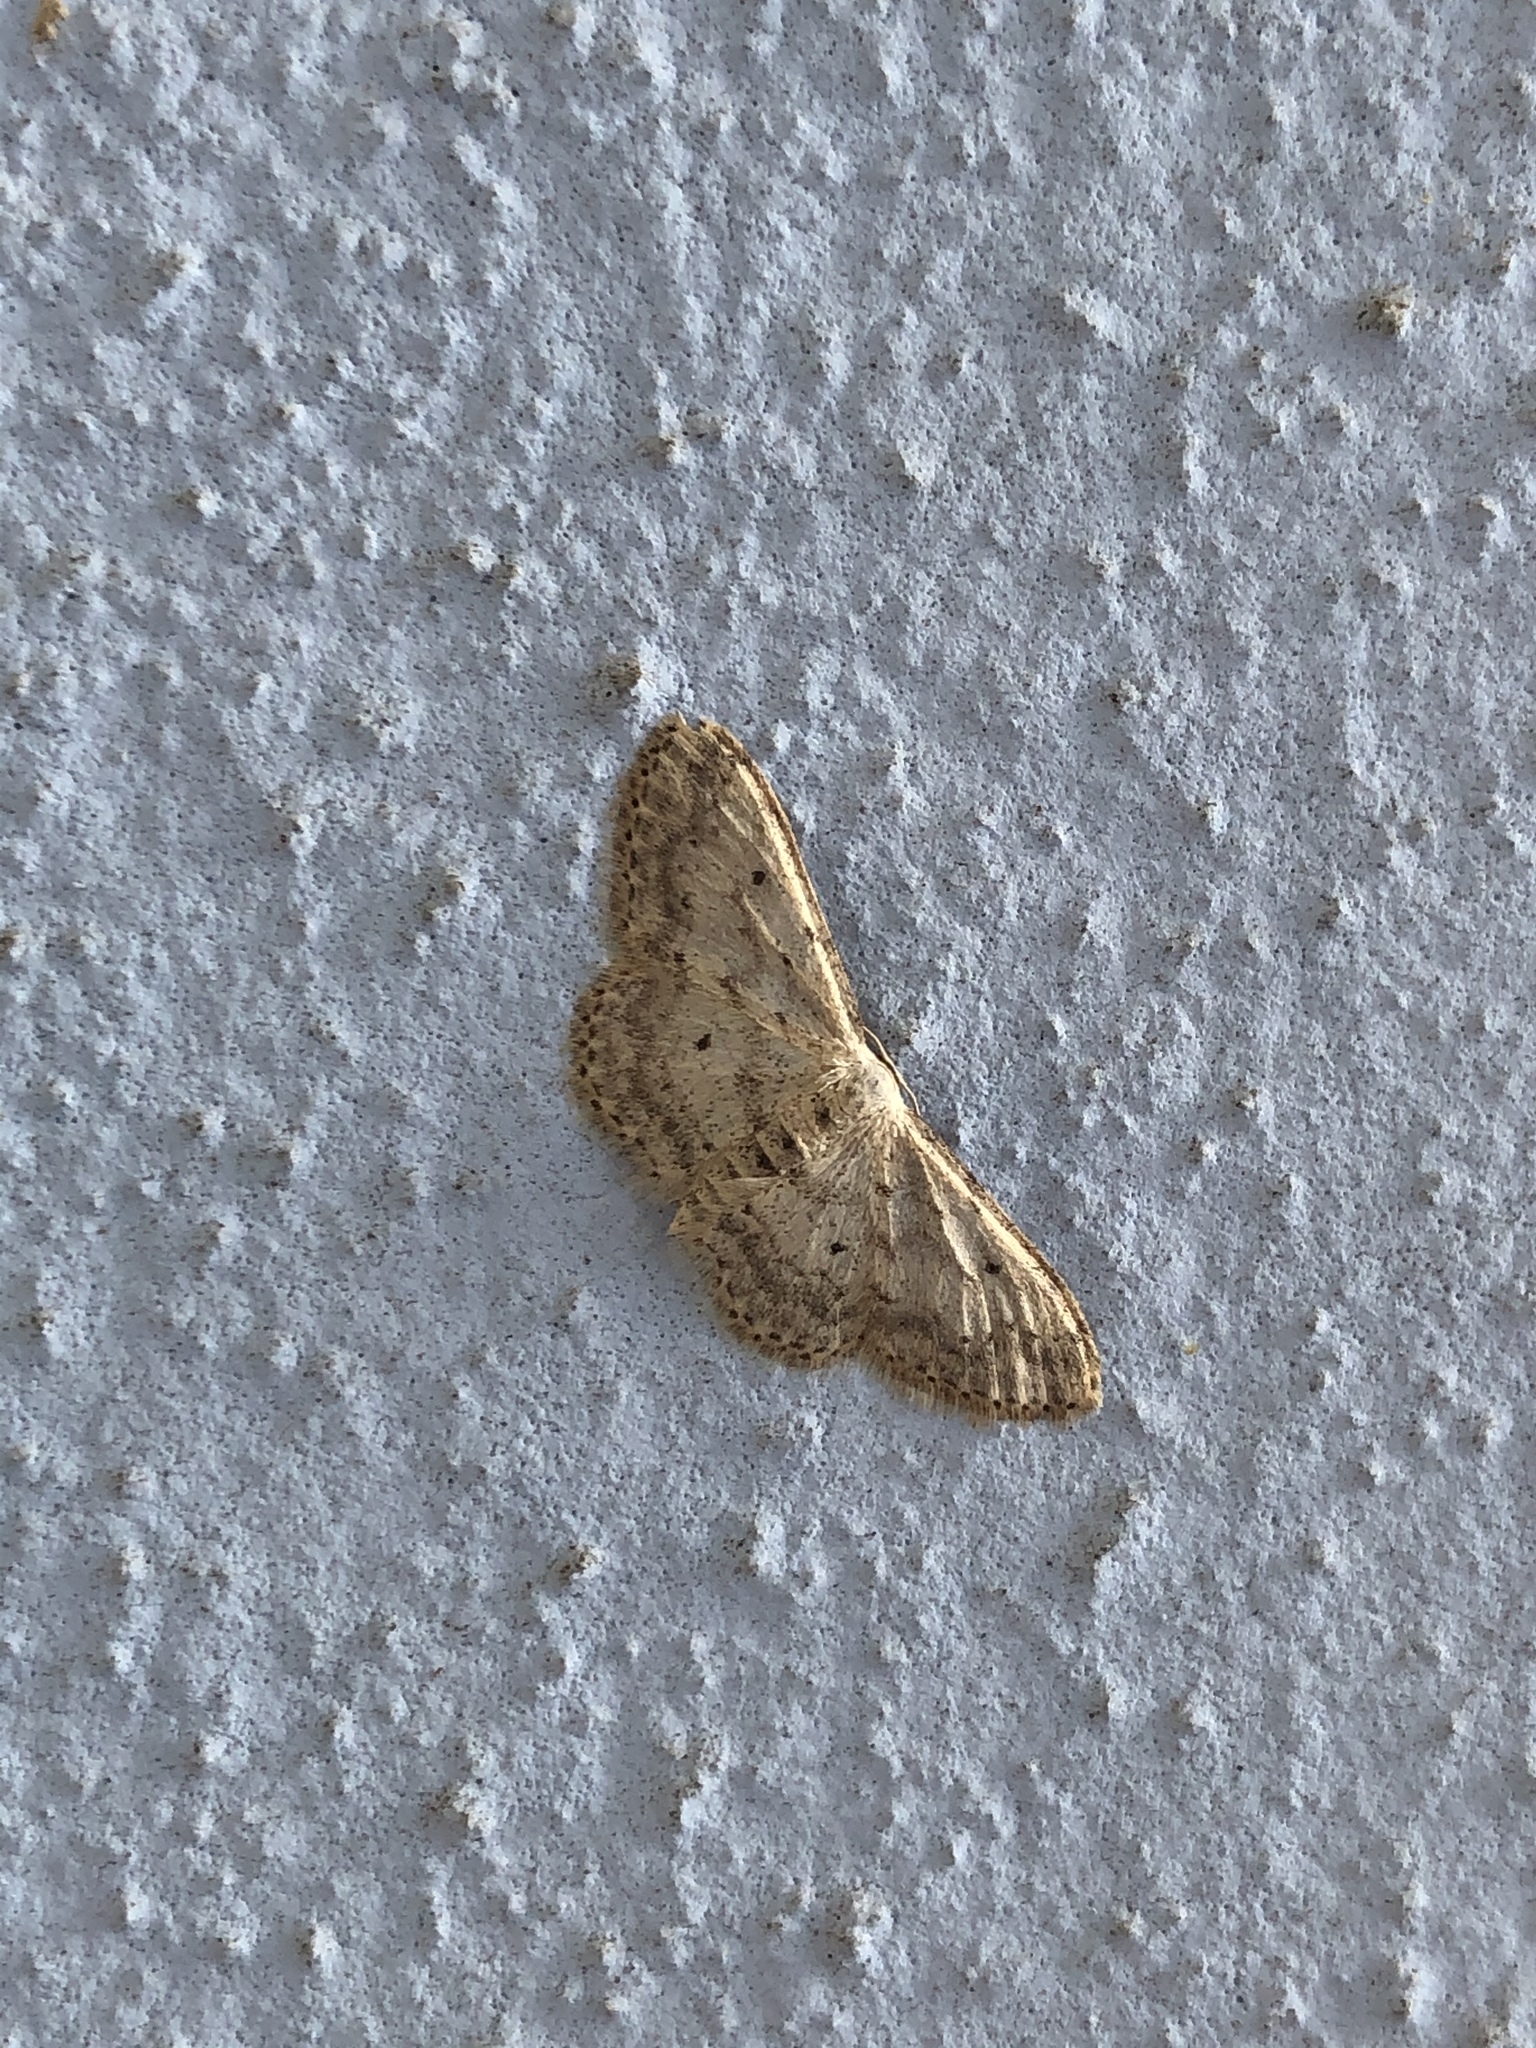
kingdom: Animalia
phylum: Arthropoda
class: Insecta
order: Lepidoptera
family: Geometridae
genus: Idaea
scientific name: Idaea seriata
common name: Small dusty wave
